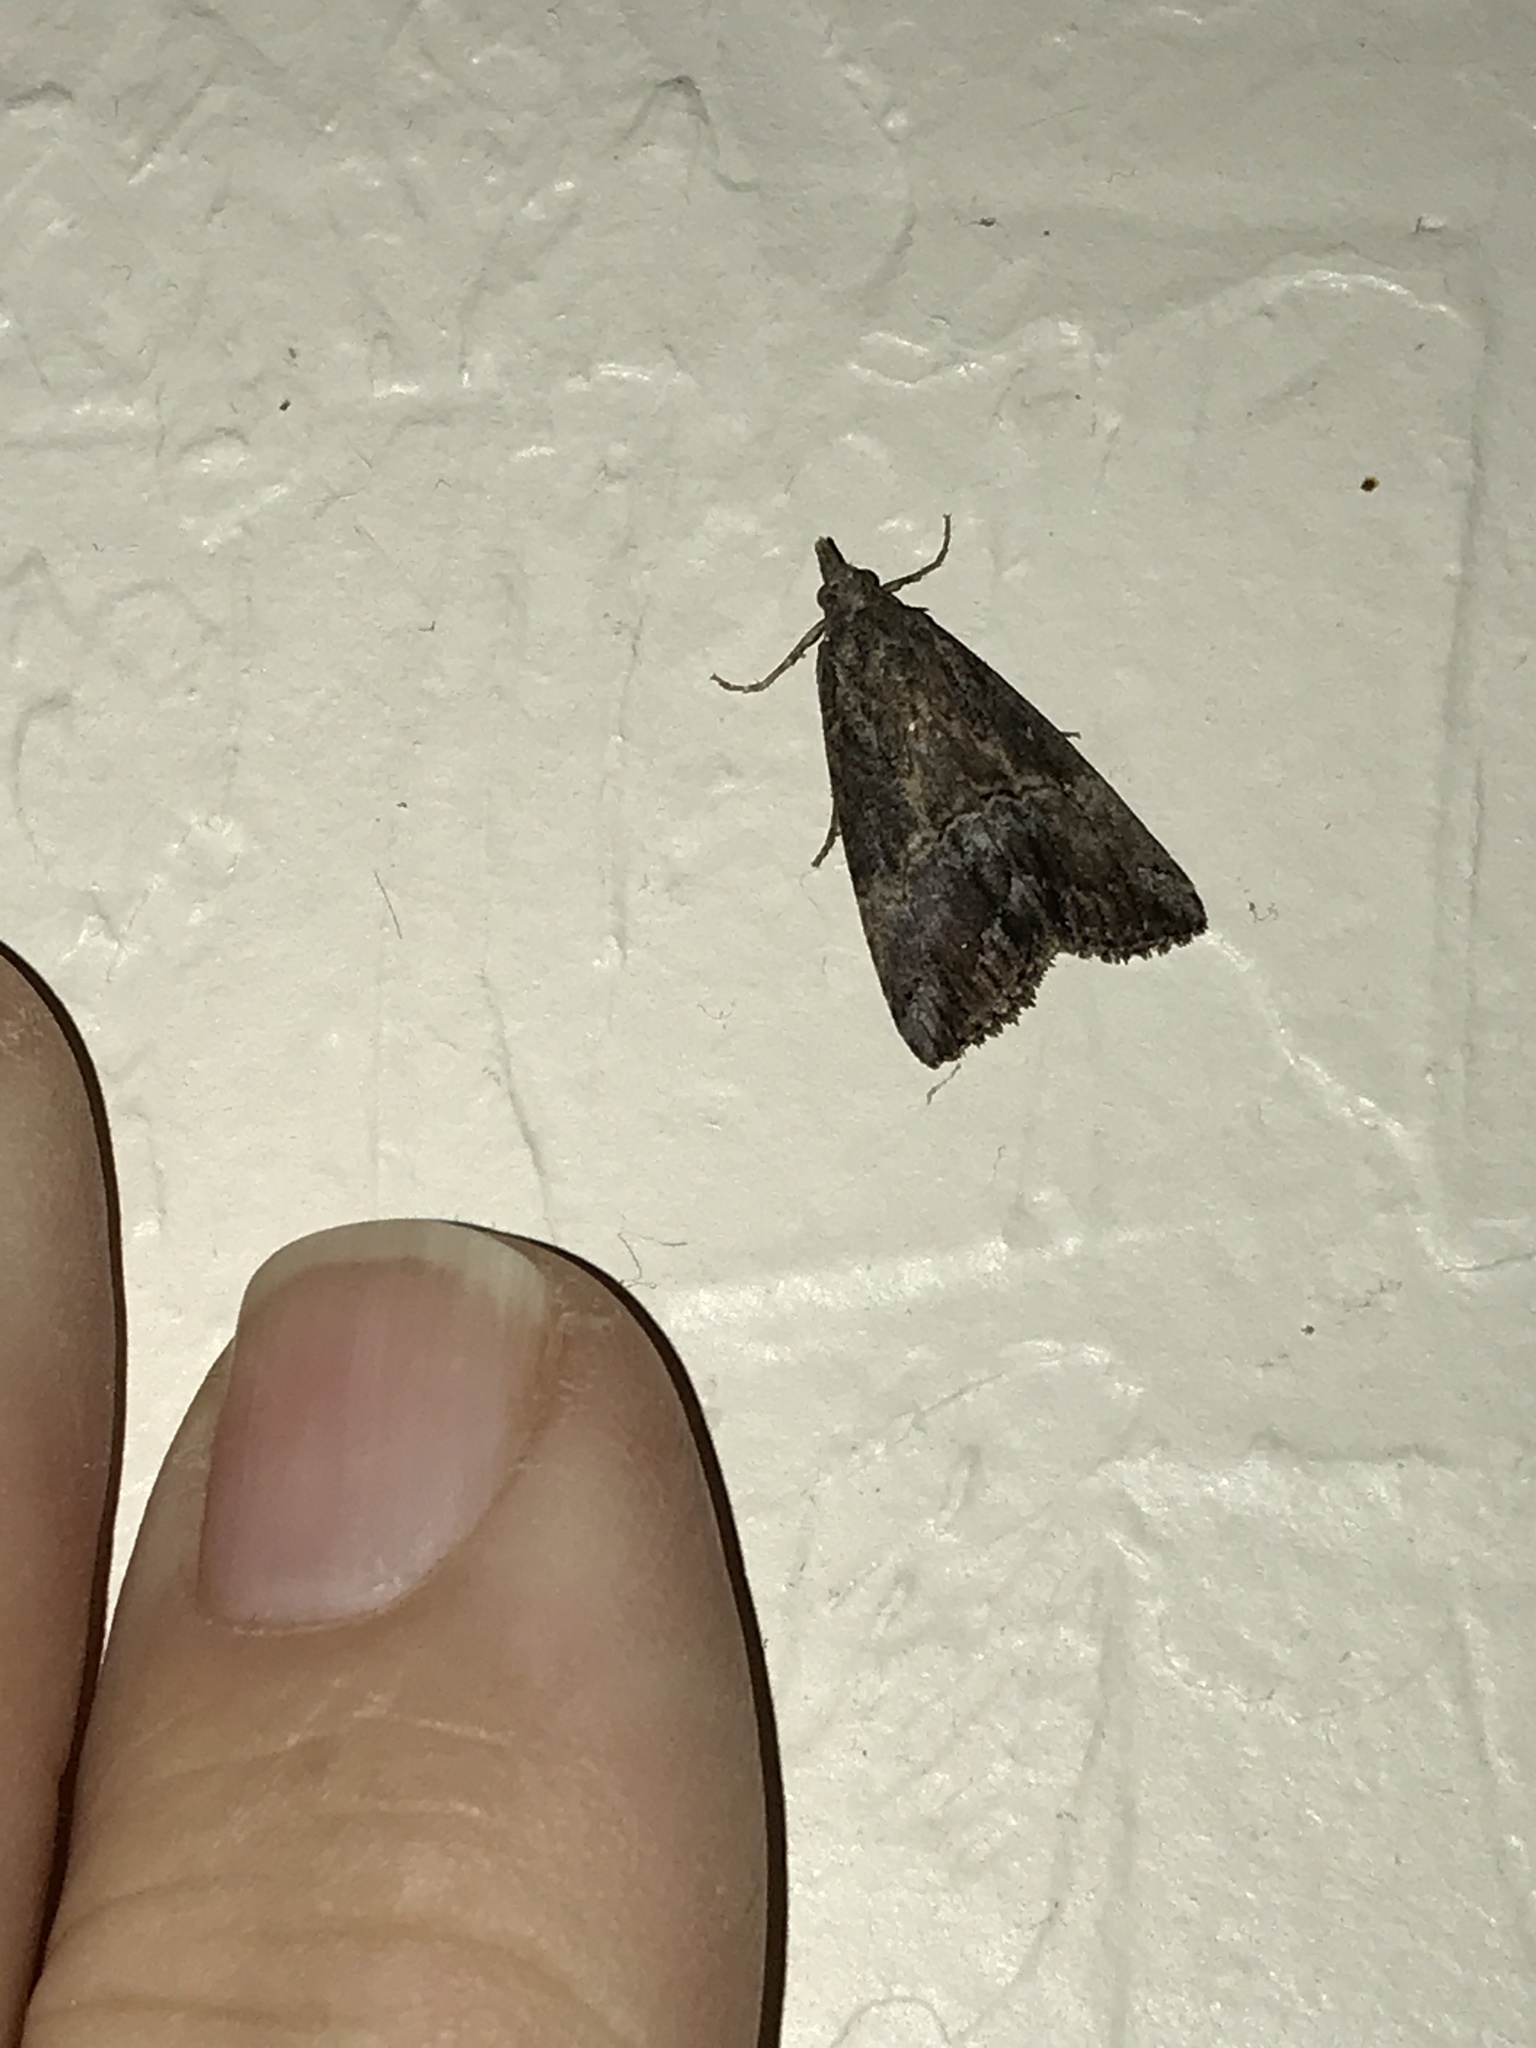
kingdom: Animalia
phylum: Arthropoda
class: Insecta
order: Lepidoptera
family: Erebidae
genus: Hypena
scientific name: Hypena scabra
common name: Green cloverworm
